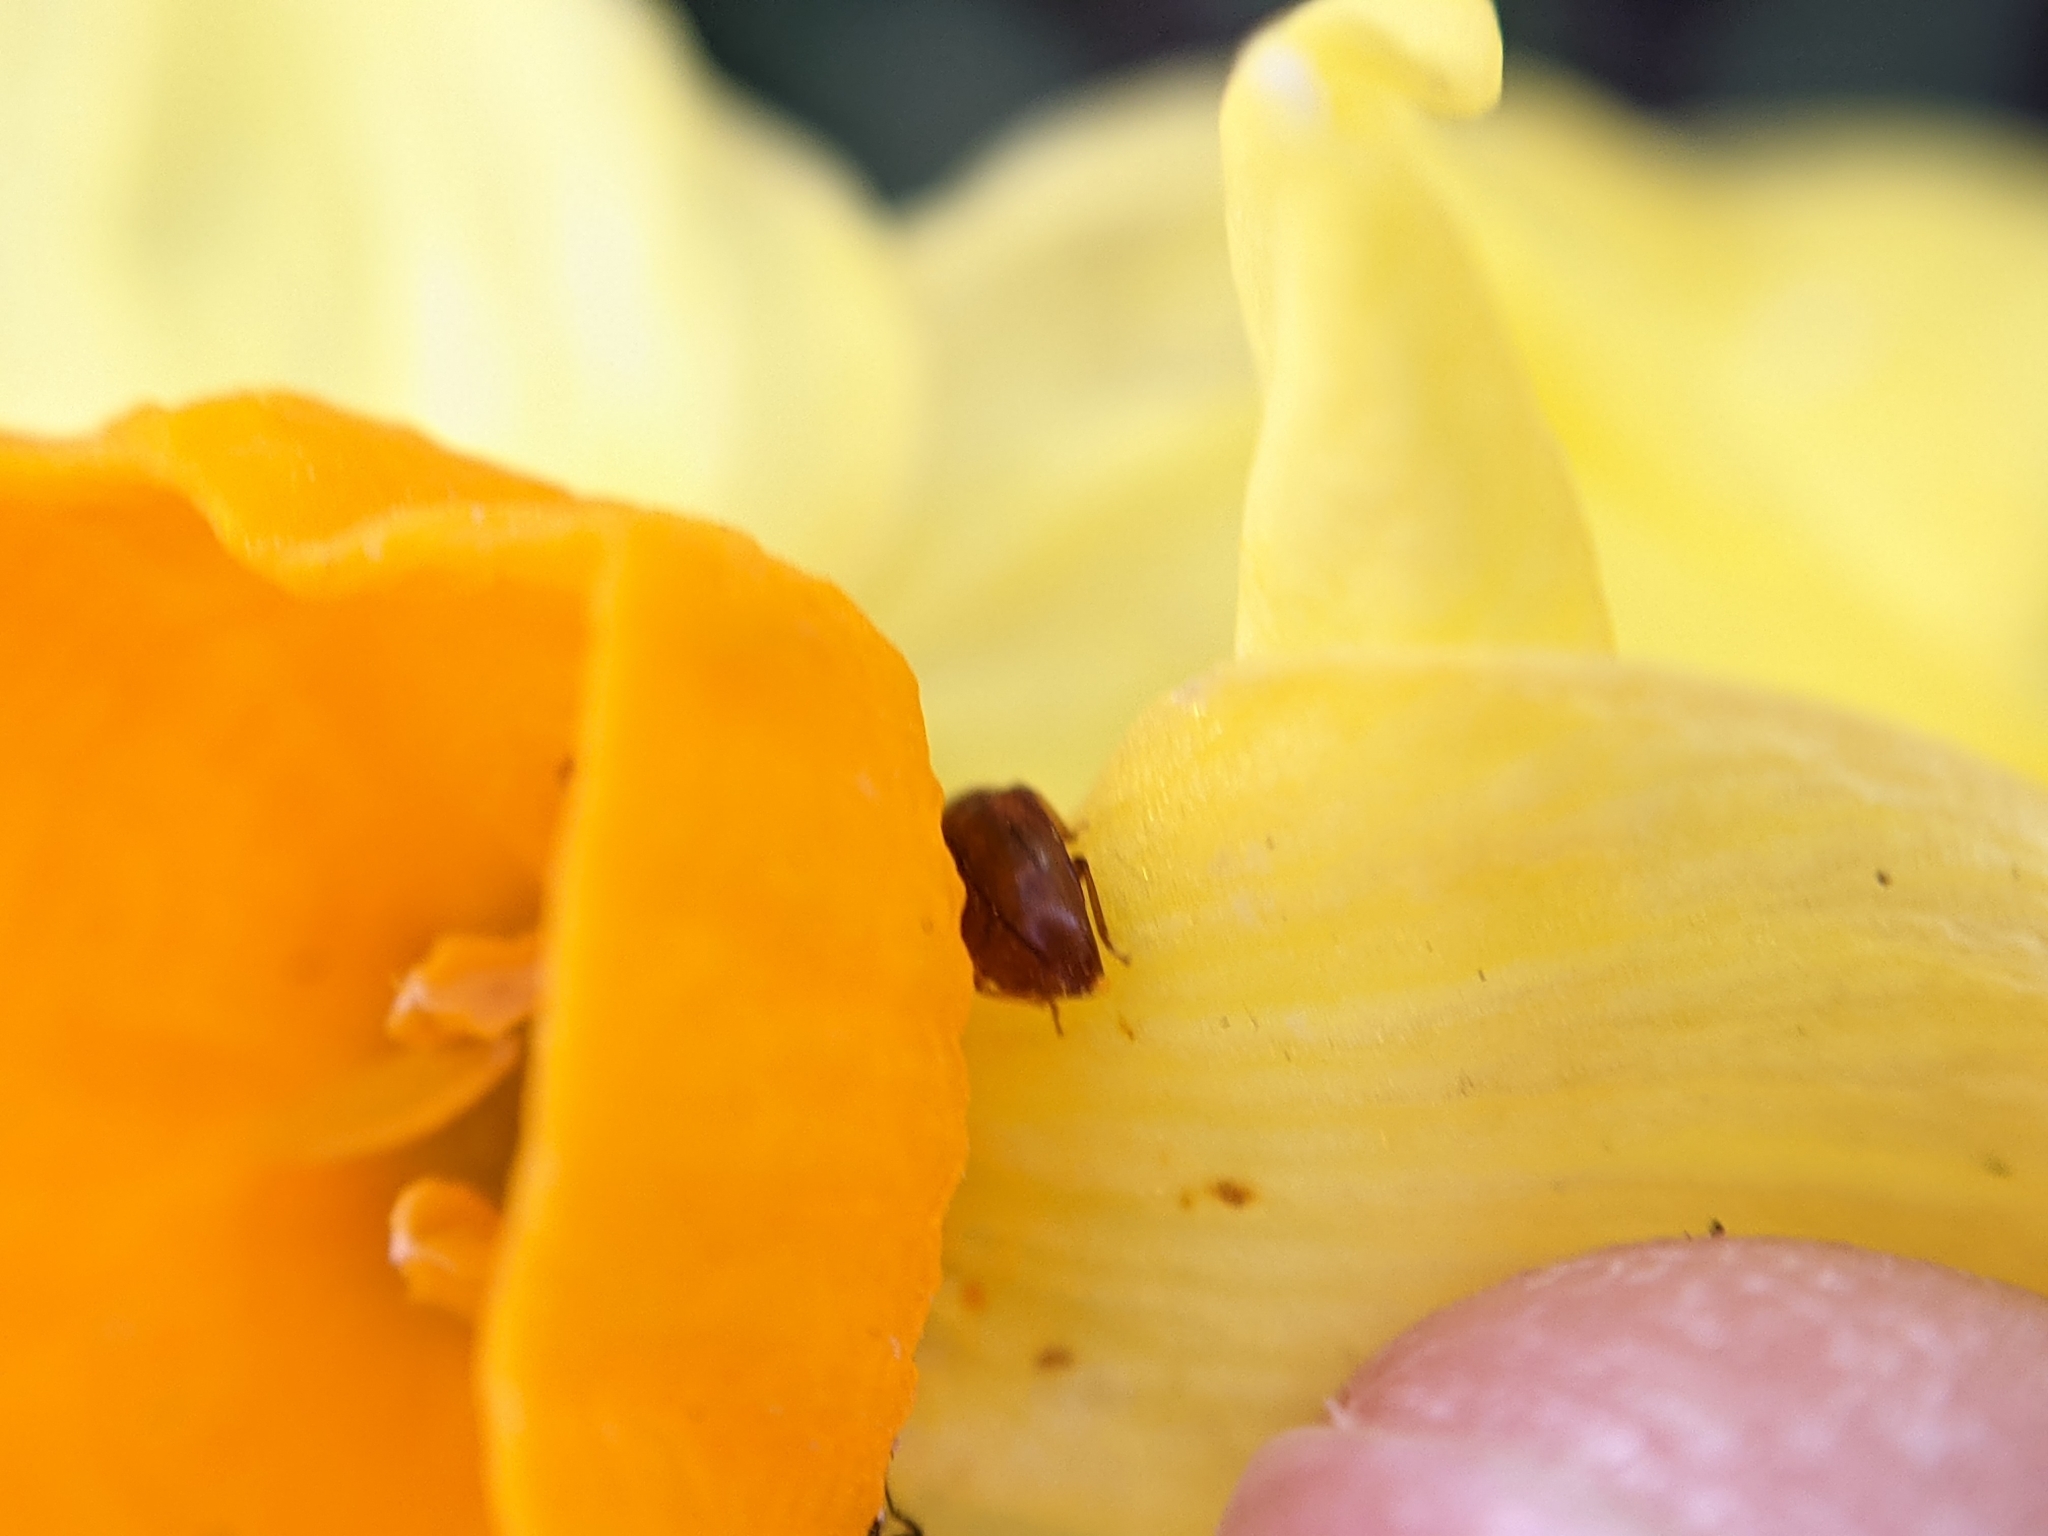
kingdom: Animalia
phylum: Arthropoda
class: Insecta
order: Coleoptera
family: Nitidulidae
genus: Epuraea
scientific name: Epuraea aestiva
